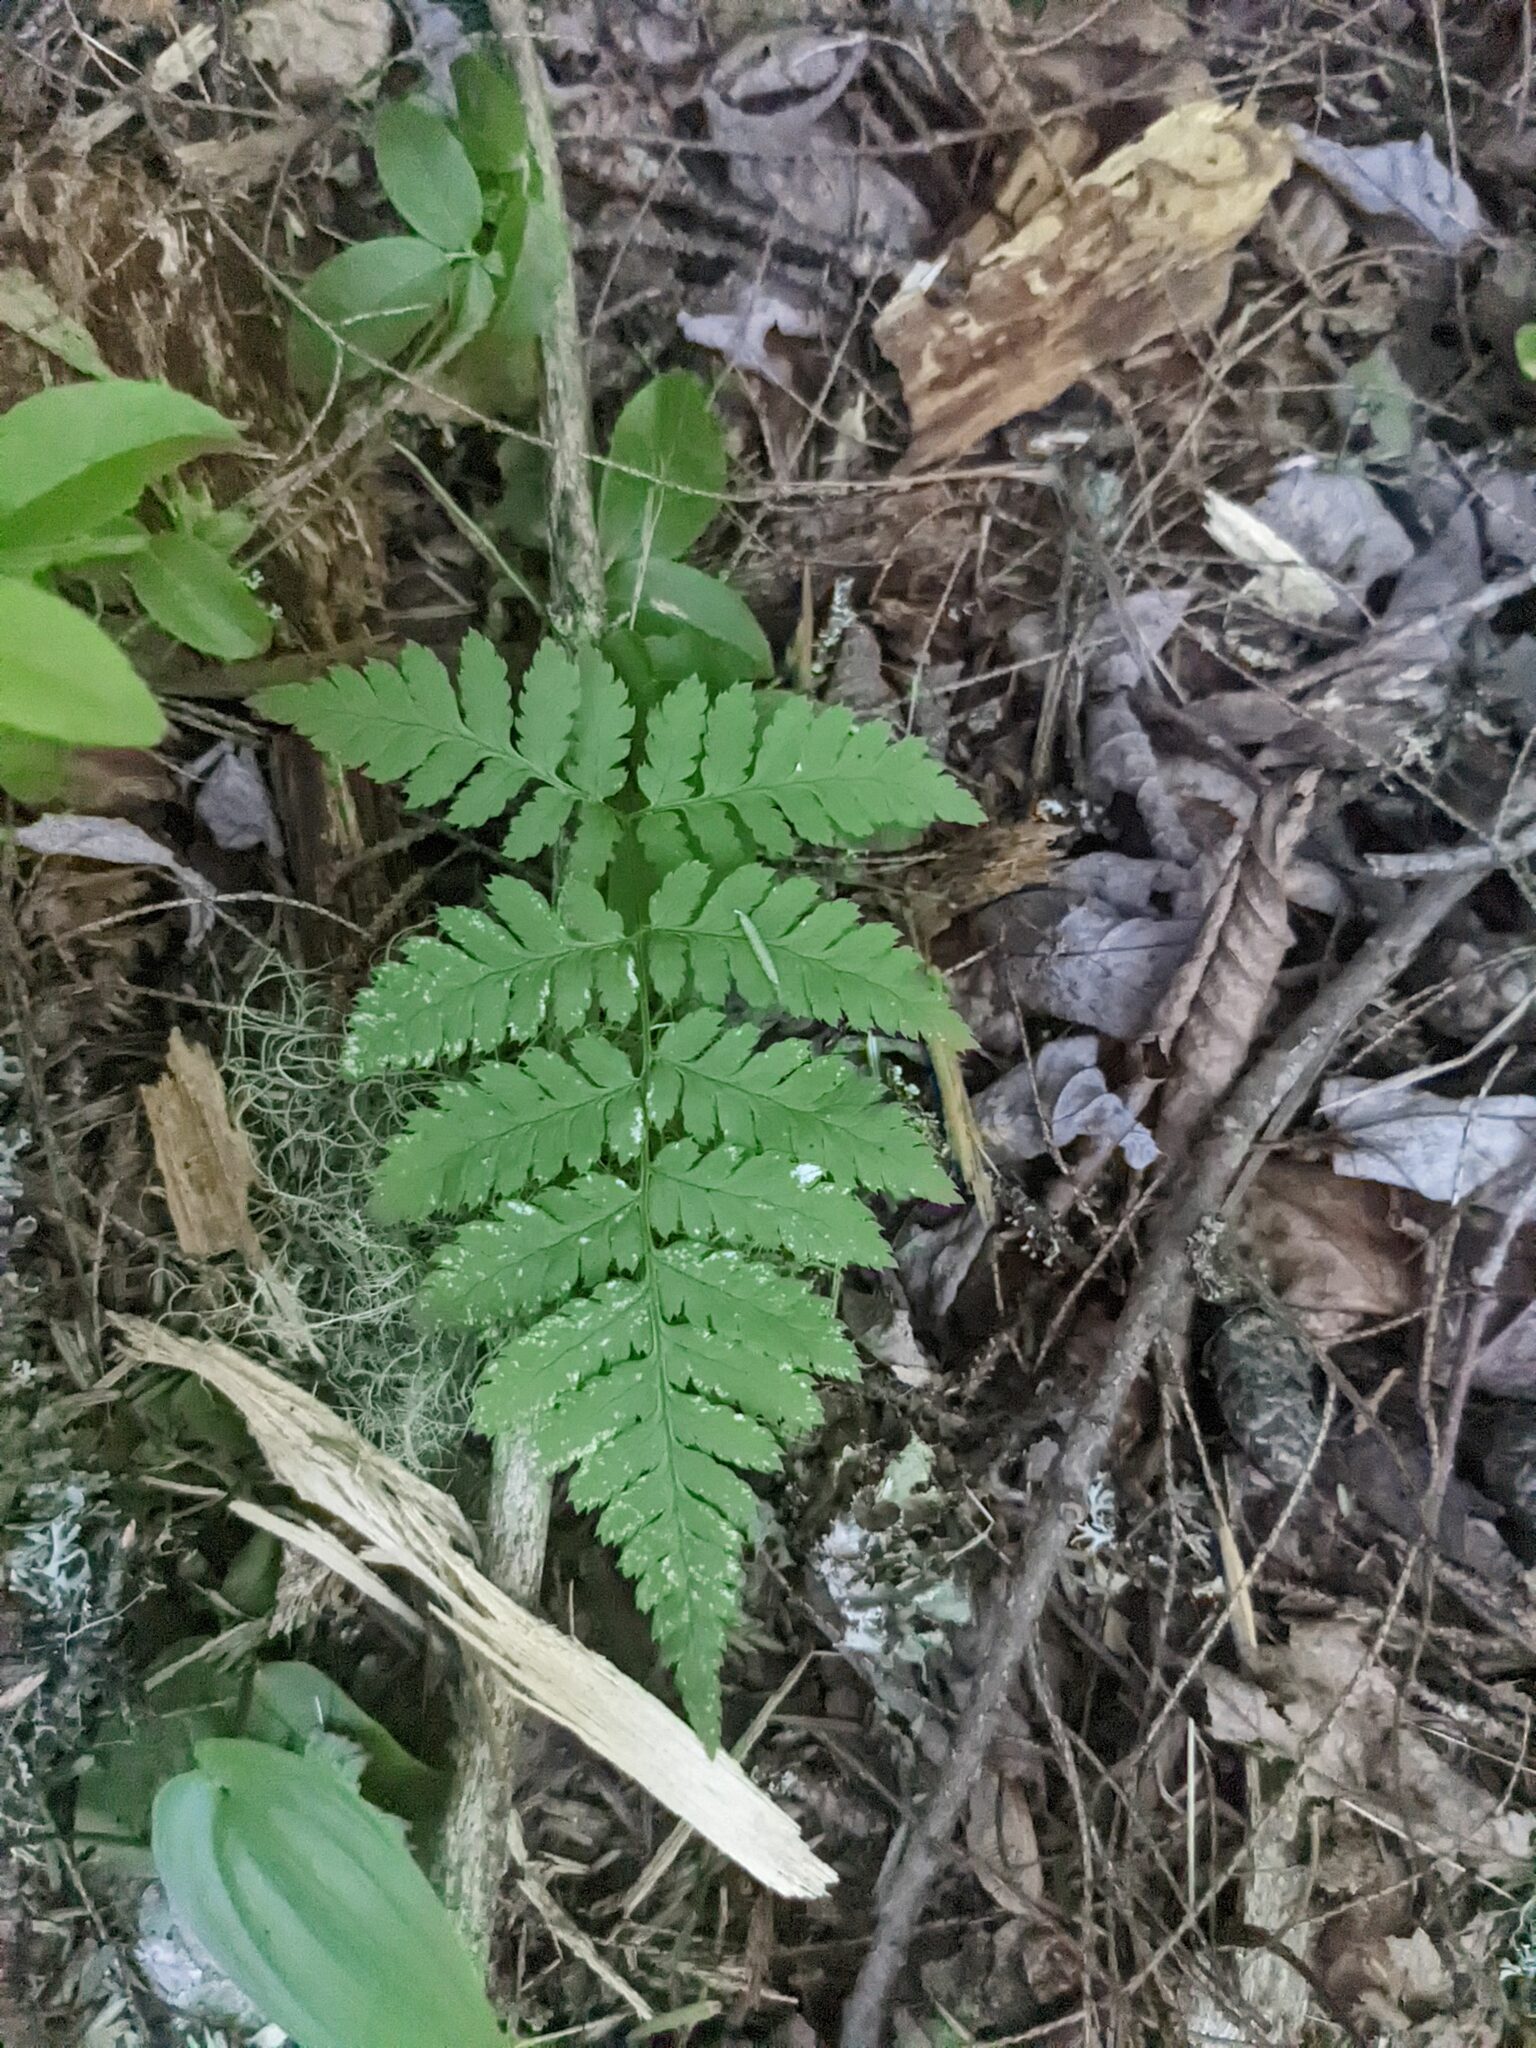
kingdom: Plantae
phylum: Tracheophyta
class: Polypodiopsida
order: Polypodiales
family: Dryopteridaceae
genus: Dryopteris
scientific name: Dryopteris intermedia
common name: Evergreen wood fern
